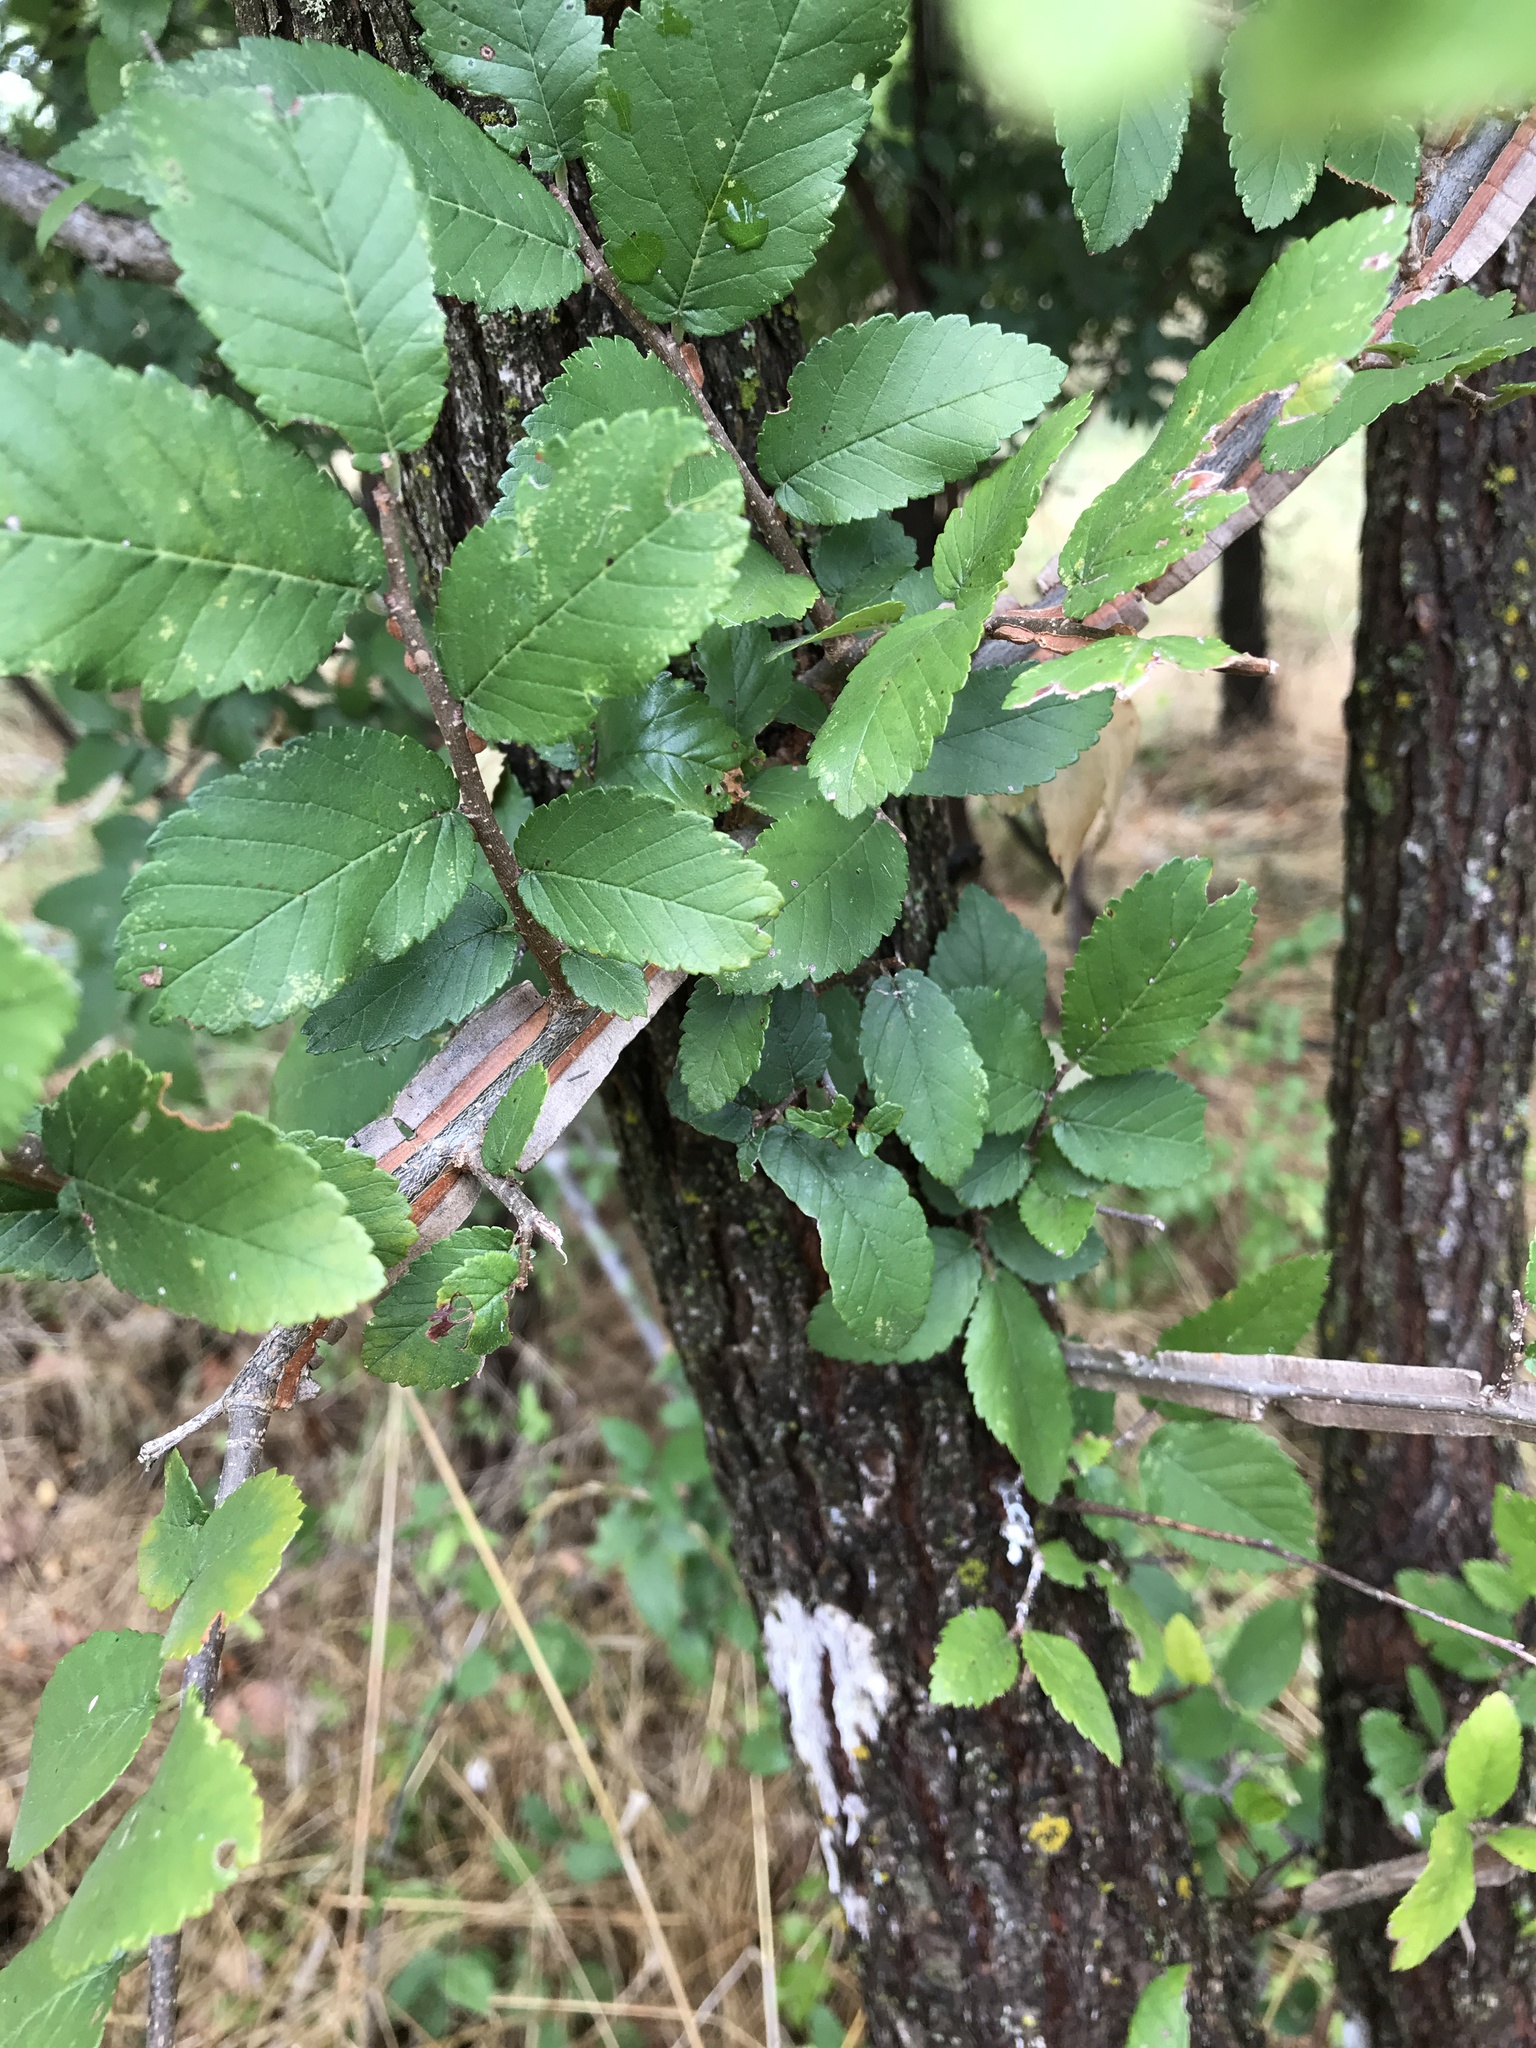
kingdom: Plantae
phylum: Tracheophyta
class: Magnoliopsida
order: Rosales
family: Ulmaceae
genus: Ulmus
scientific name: Ulmus crassifolia
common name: Basket elm
